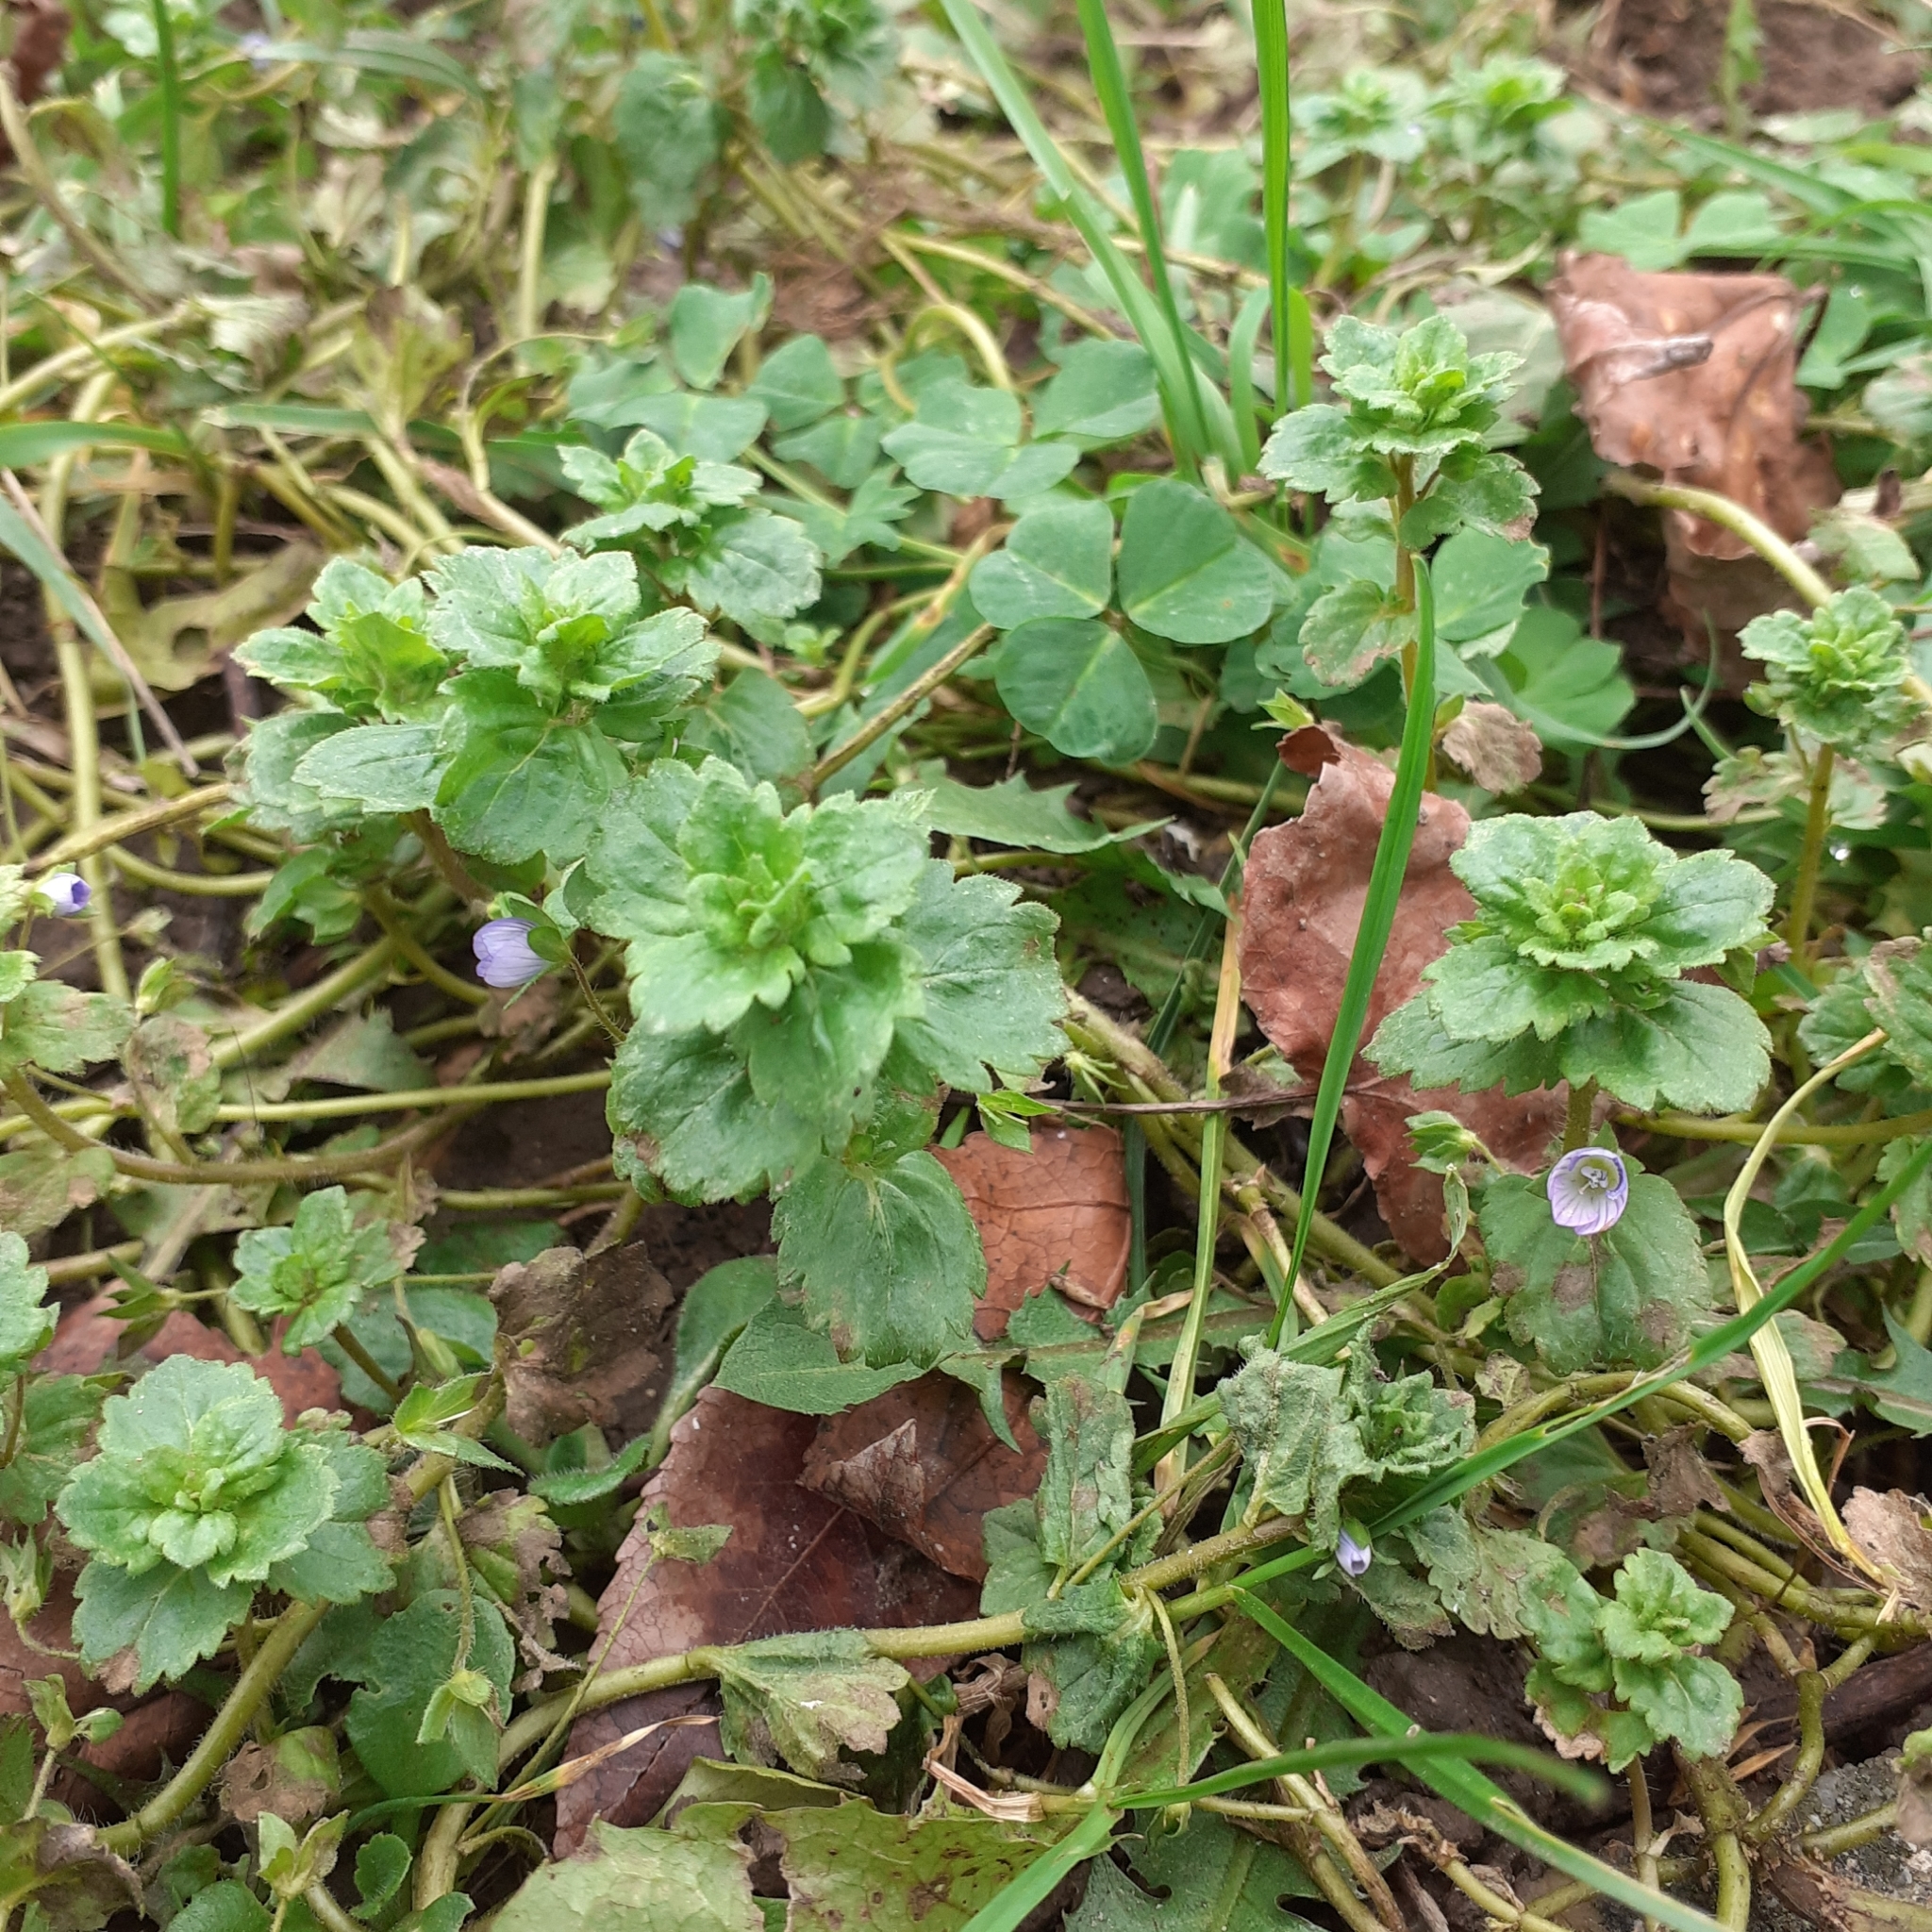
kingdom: Plantae
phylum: Tracheophyta
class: Magnoliopsida
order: Lamiales
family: Plantaginaceae
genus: Veronica
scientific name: Veronica persica
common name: Common field-speedwell
